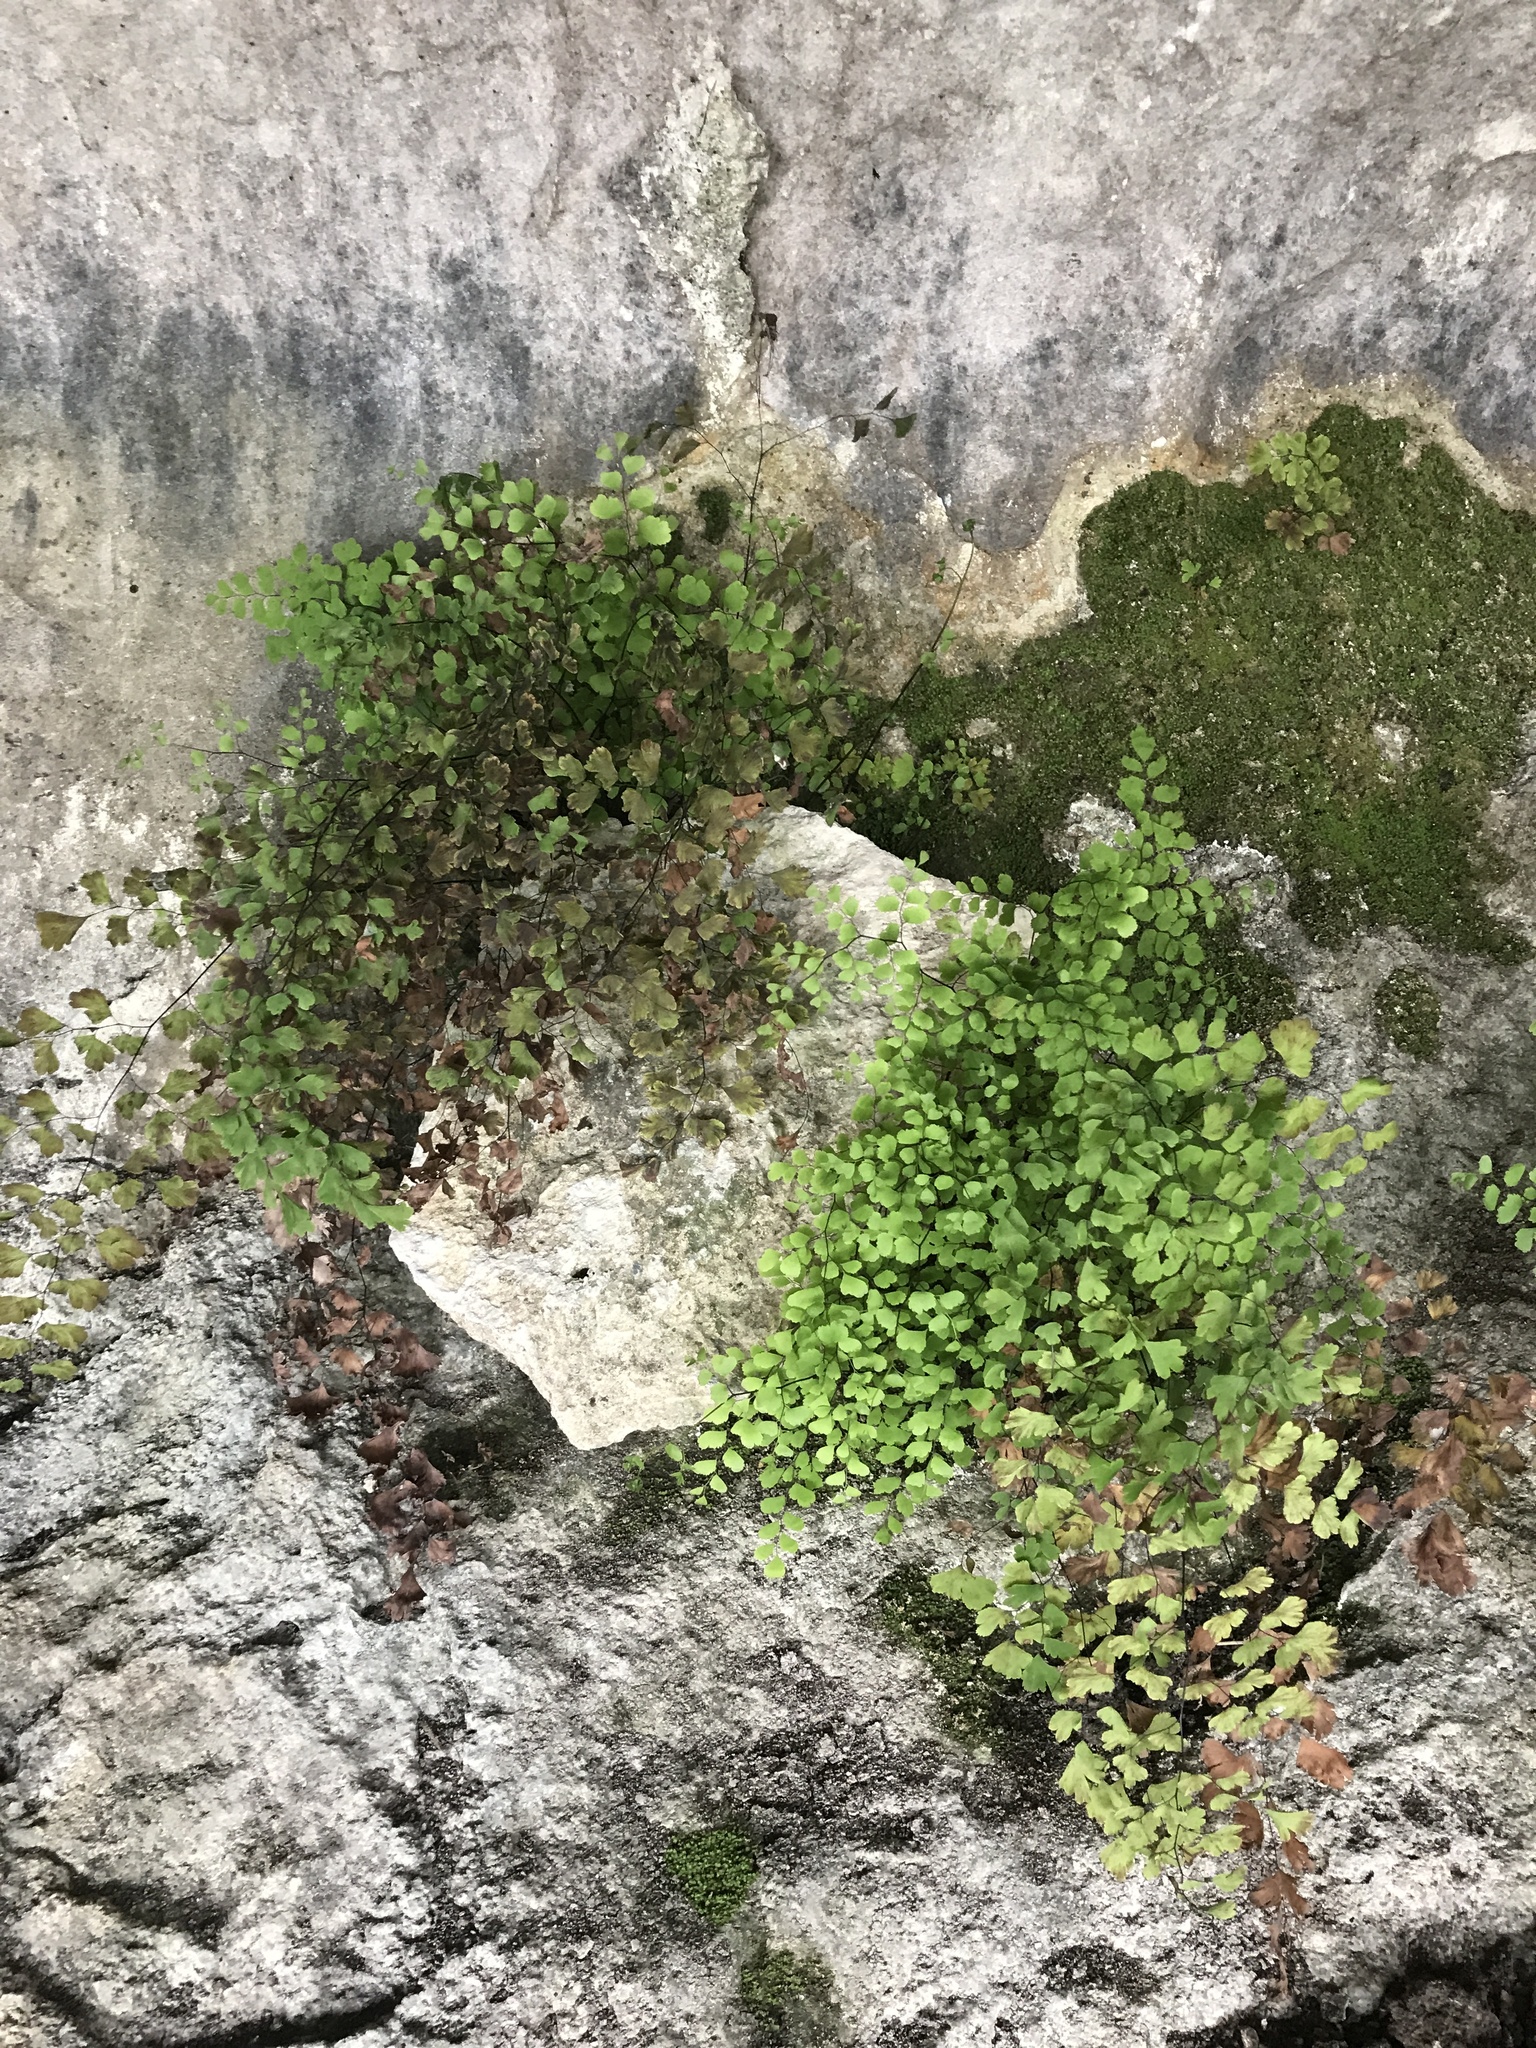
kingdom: Plantae
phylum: Tracheophyta
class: Polypodiopsida
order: Polypodiales
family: Pteridaceae
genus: Adiantum
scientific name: Adiantum capillus-veneris
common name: Maidenhair fern
